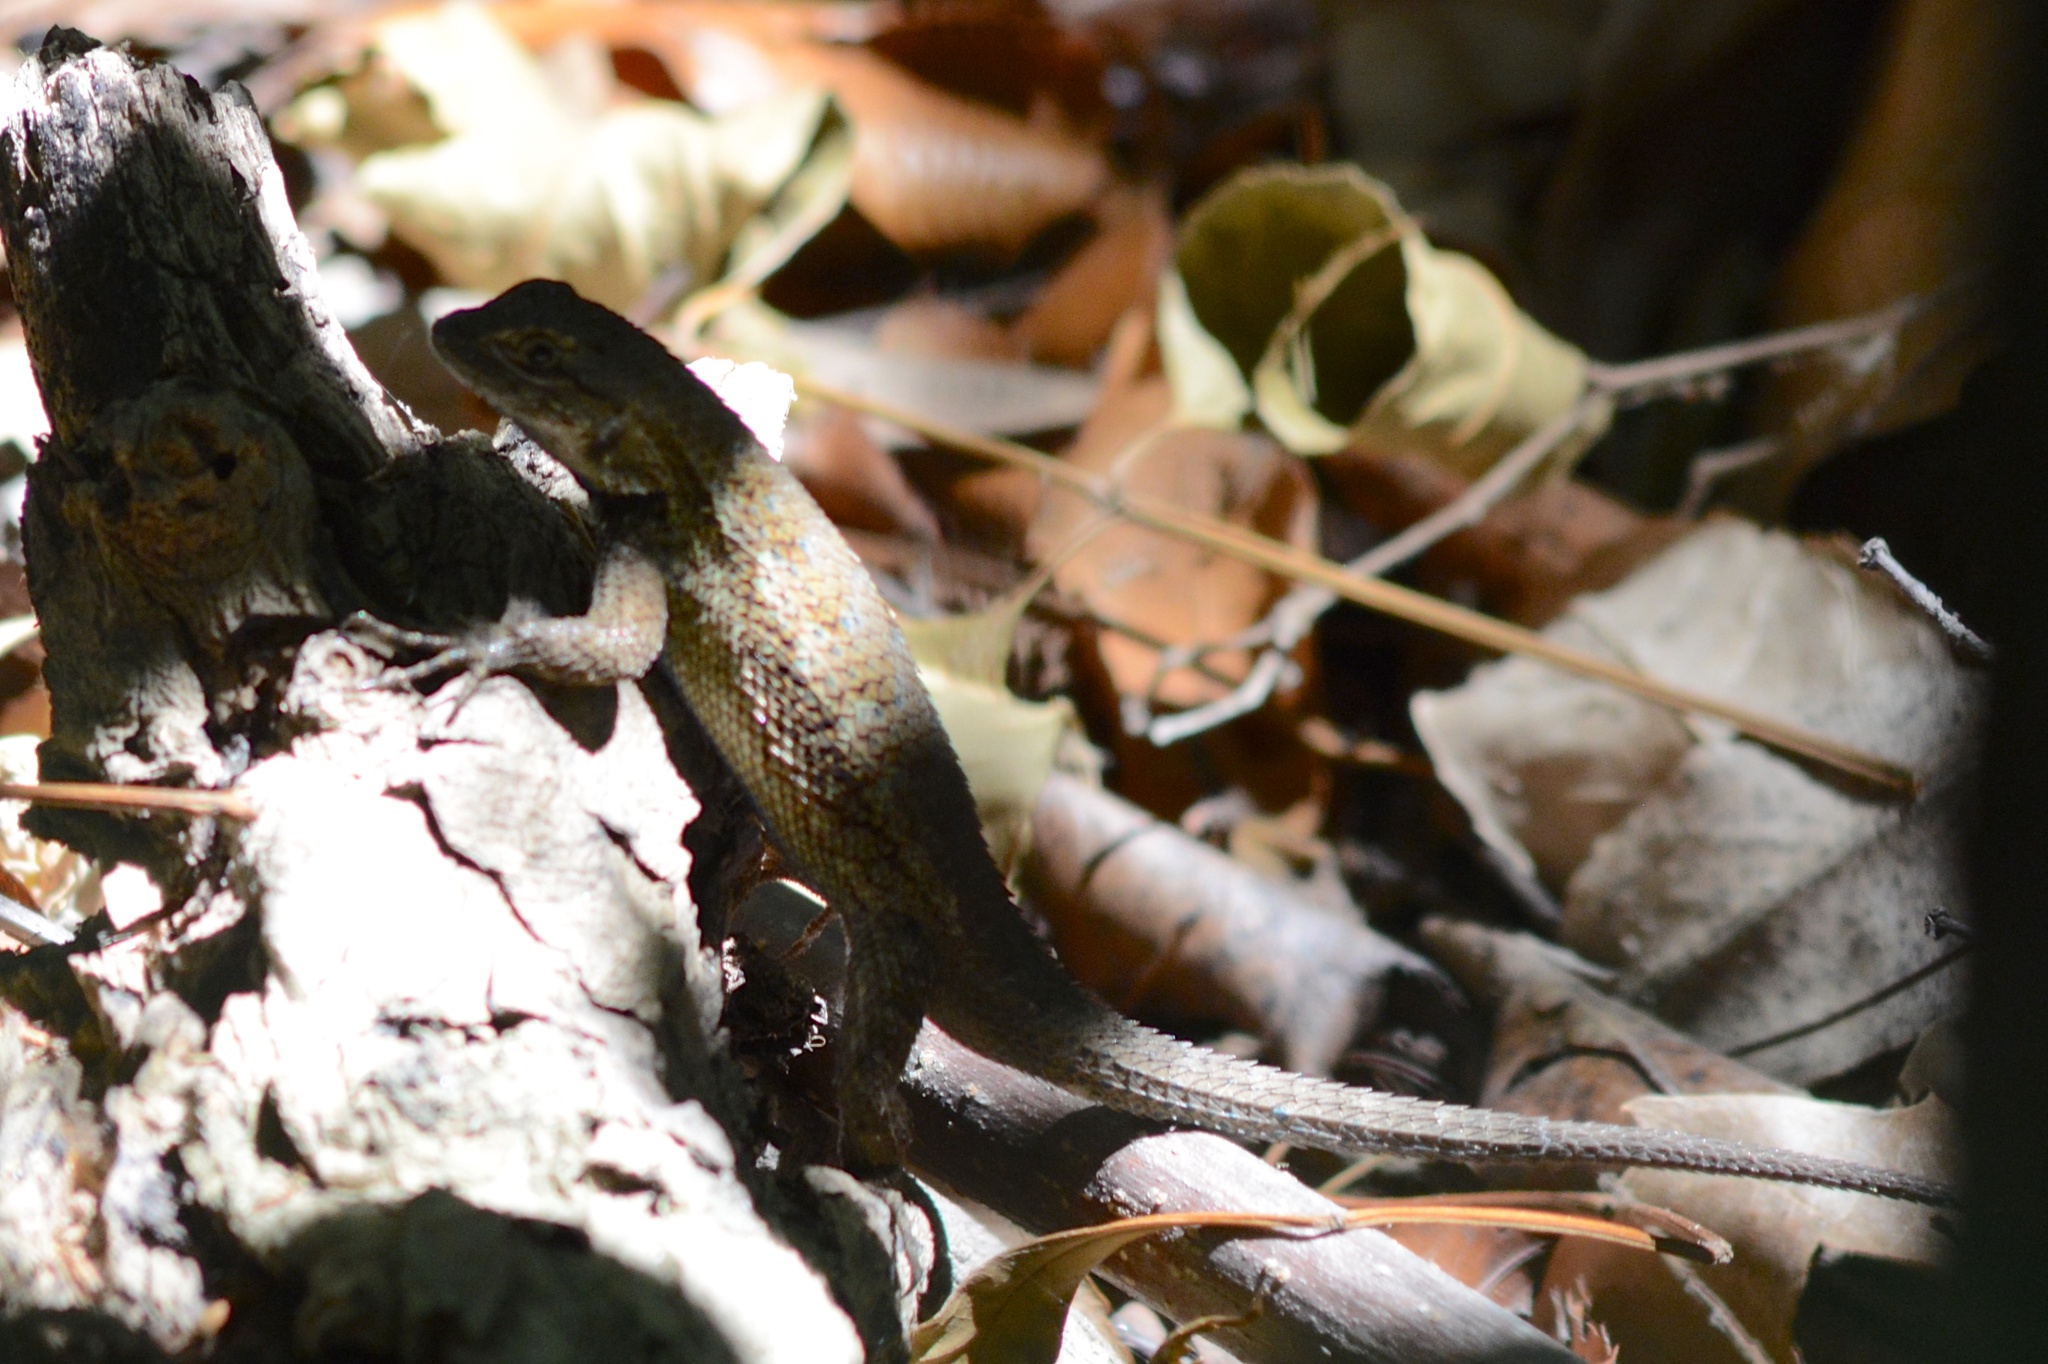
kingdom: Animalia
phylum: Chordata
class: Squamata
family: Phrynosomatidae
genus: Sceloporus
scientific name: Sceloporus occidentalis
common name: Western fence lizard
